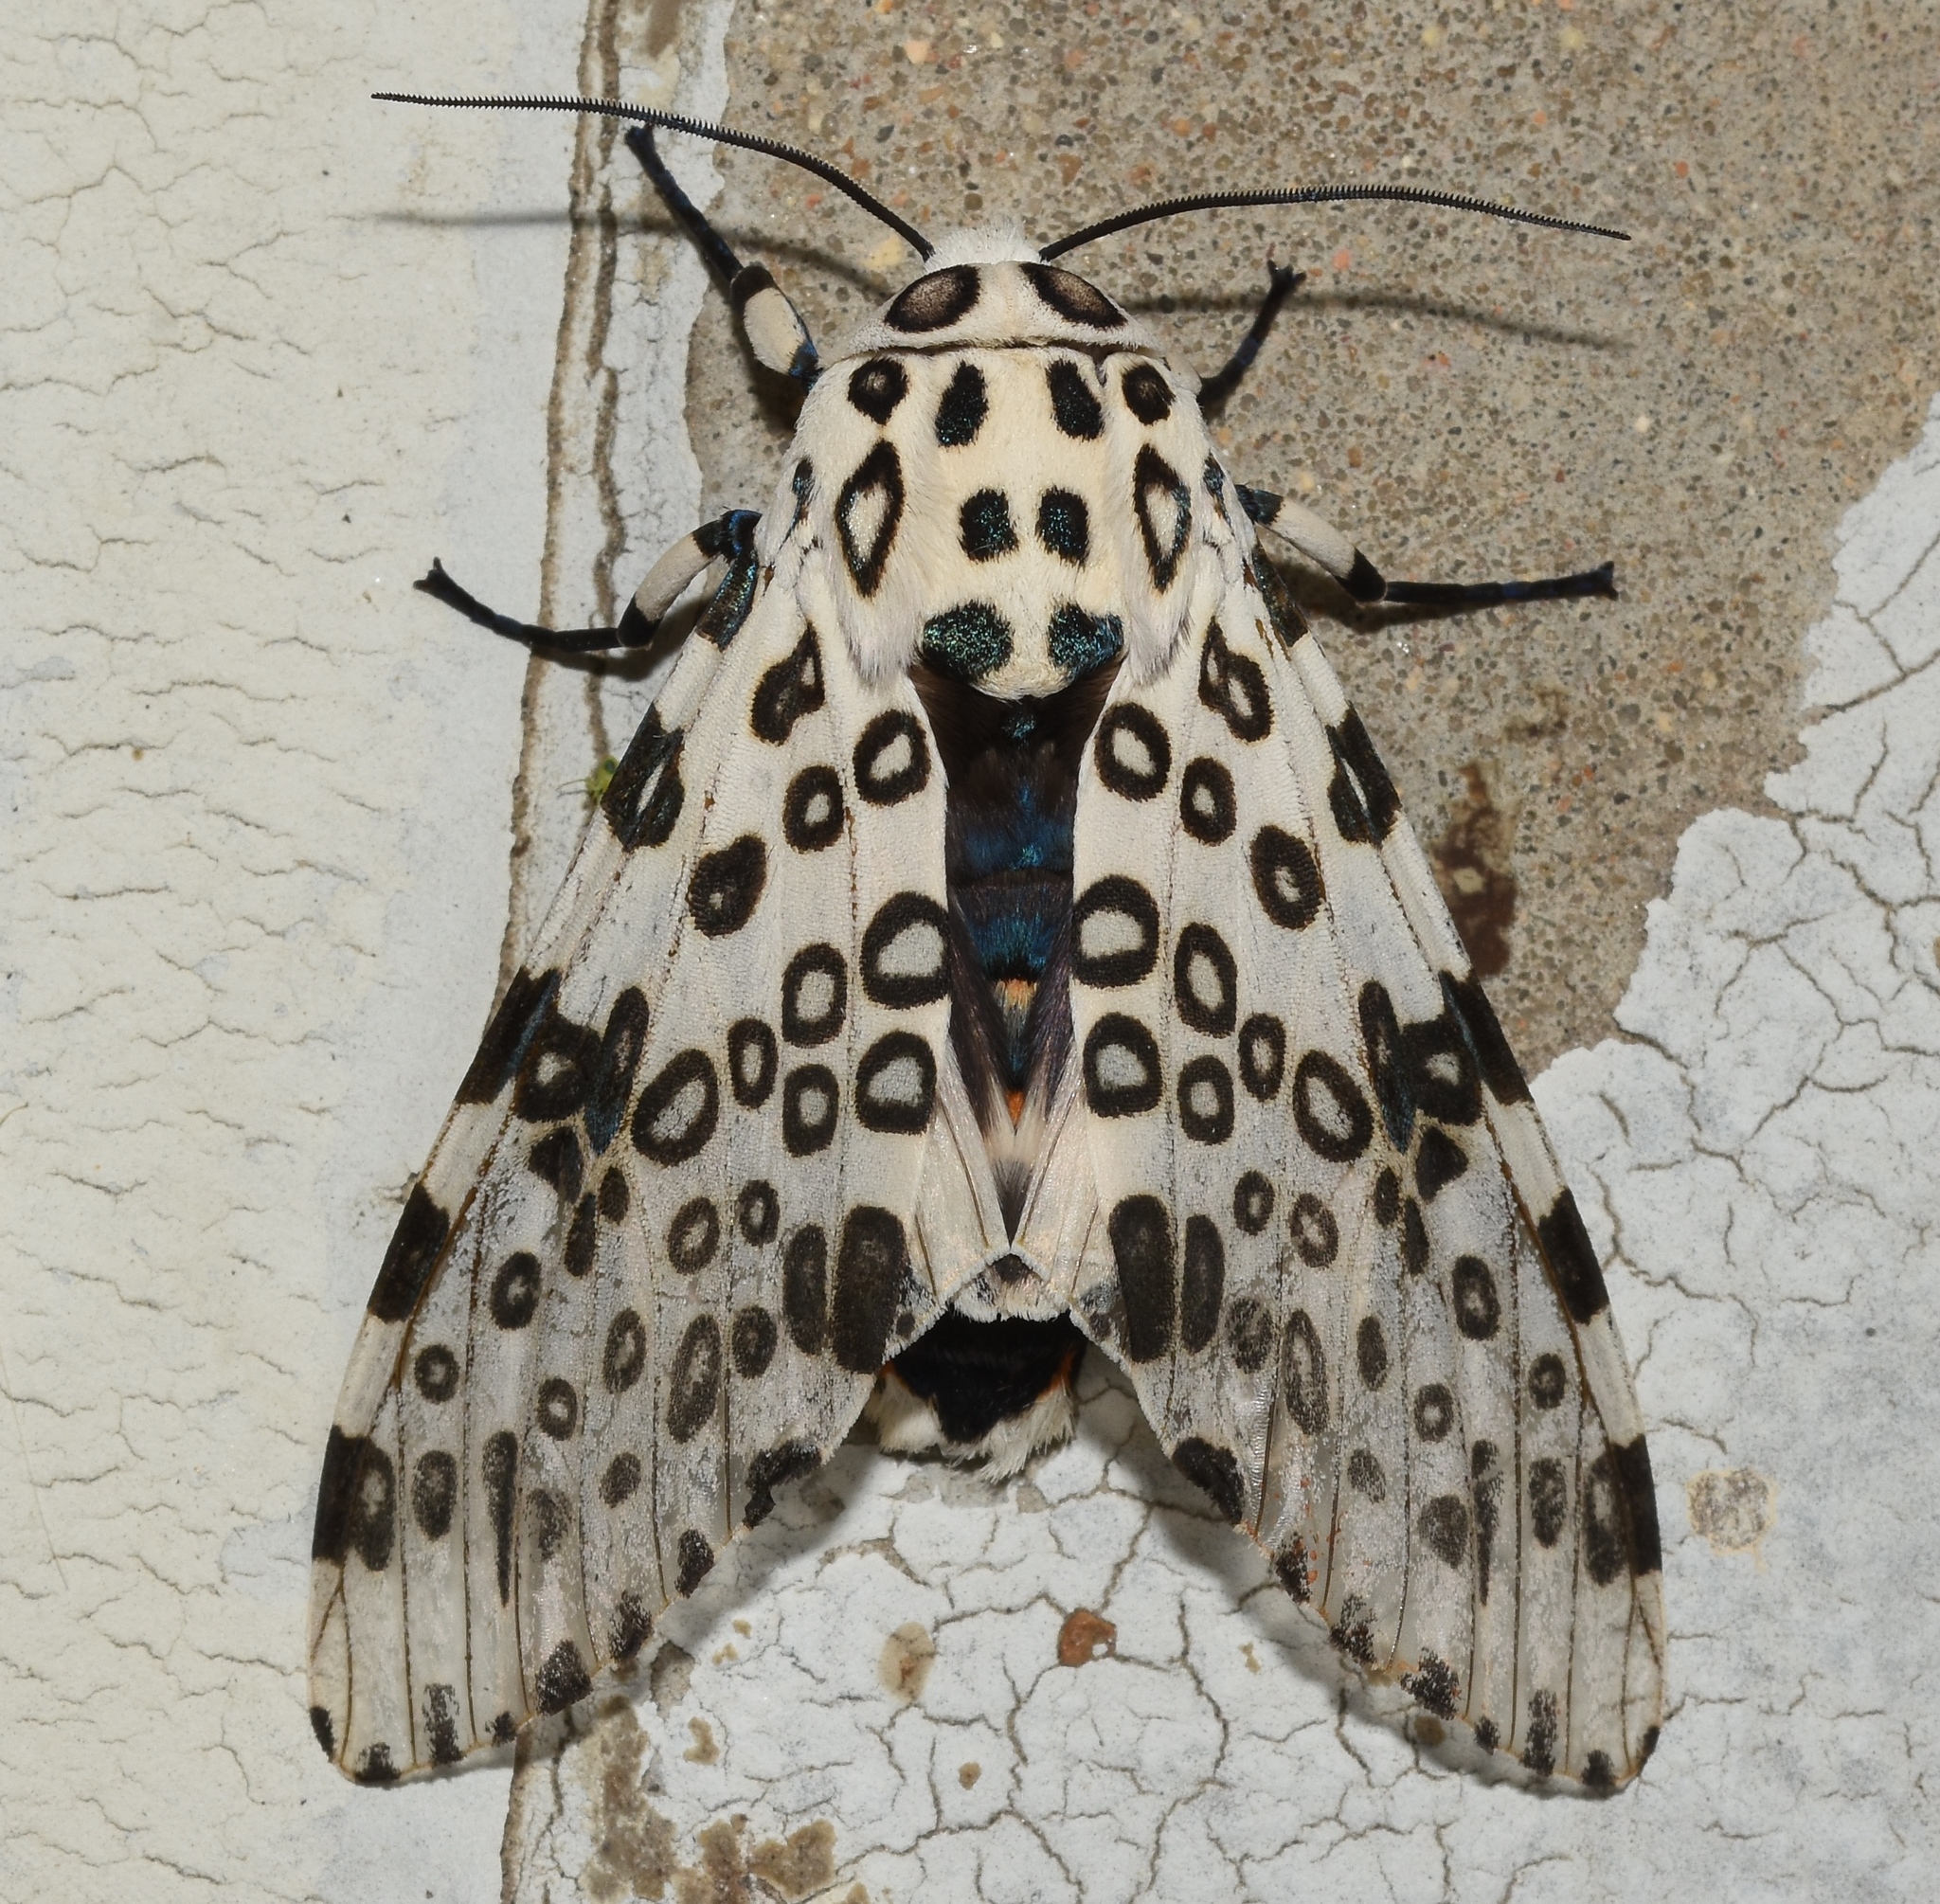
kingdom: Animalia
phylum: Arthropoda
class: Insecta
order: Lepidoptera
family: Erebidae
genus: Hypercompe
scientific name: Hypercompe scribonia
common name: Giant leopard moth
